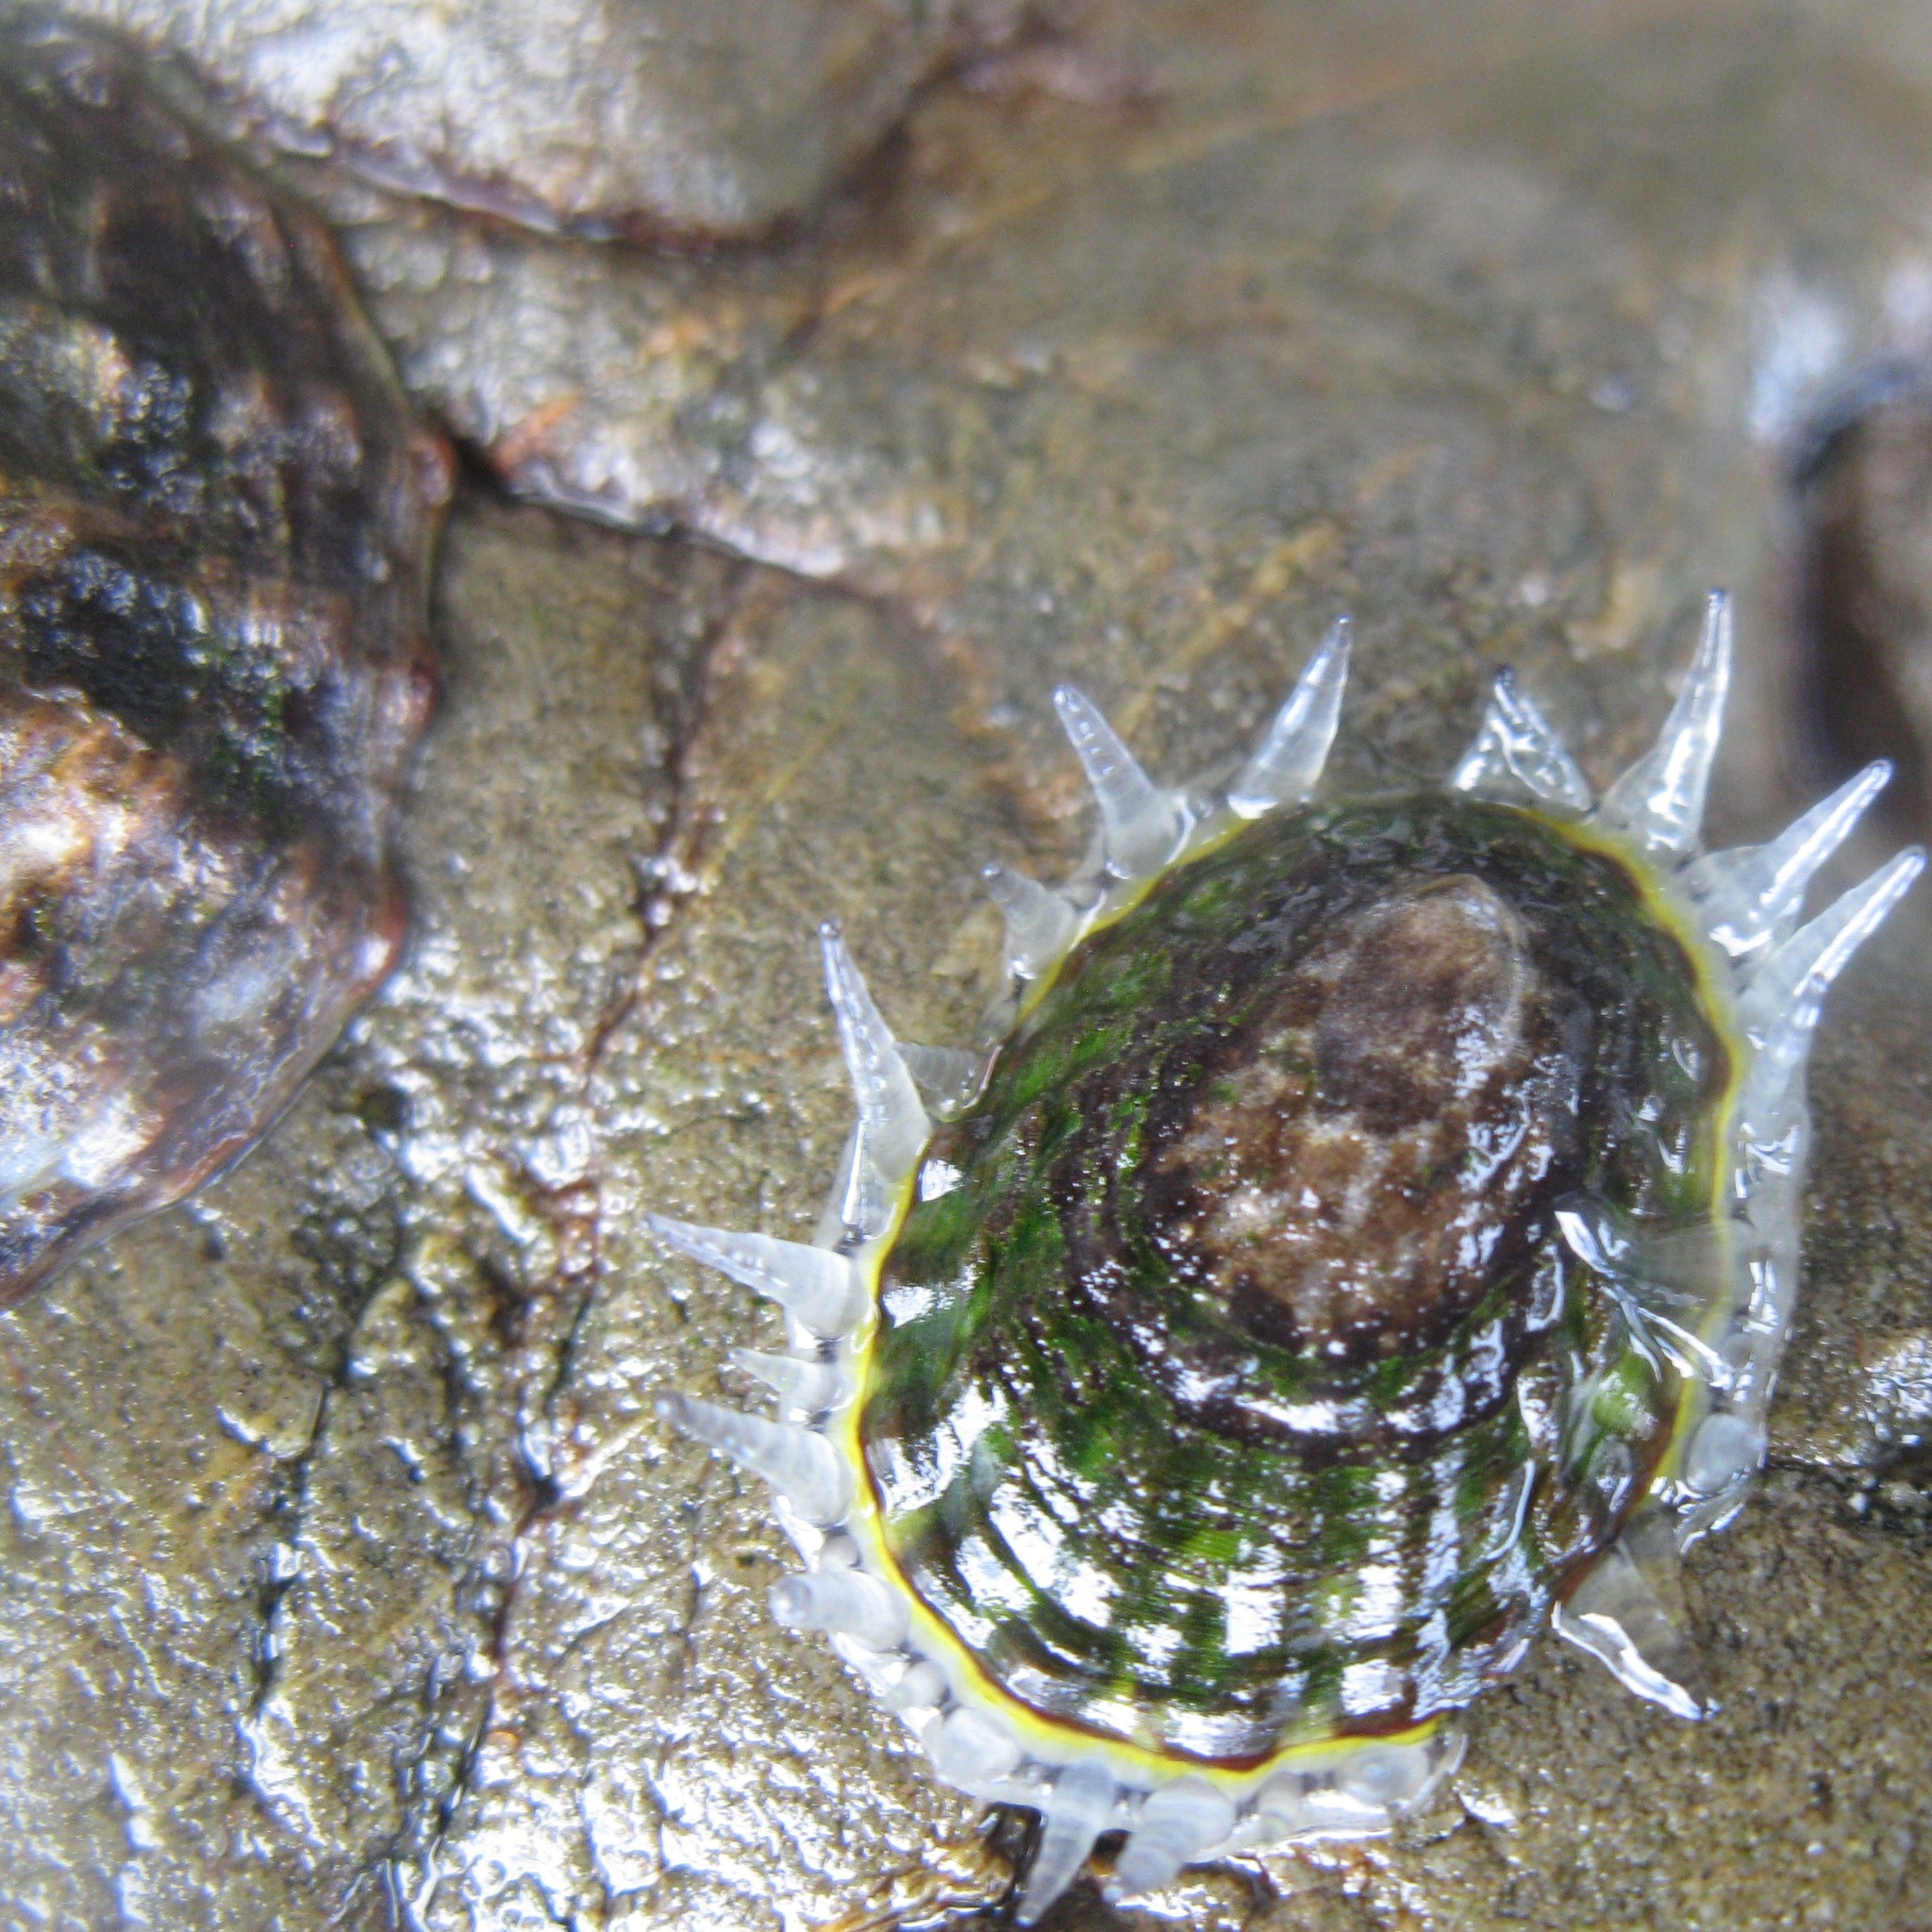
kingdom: Animalia
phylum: Mollusca
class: Gastropoda
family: Nacellidae
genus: Cellana
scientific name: Cellana denticulata
